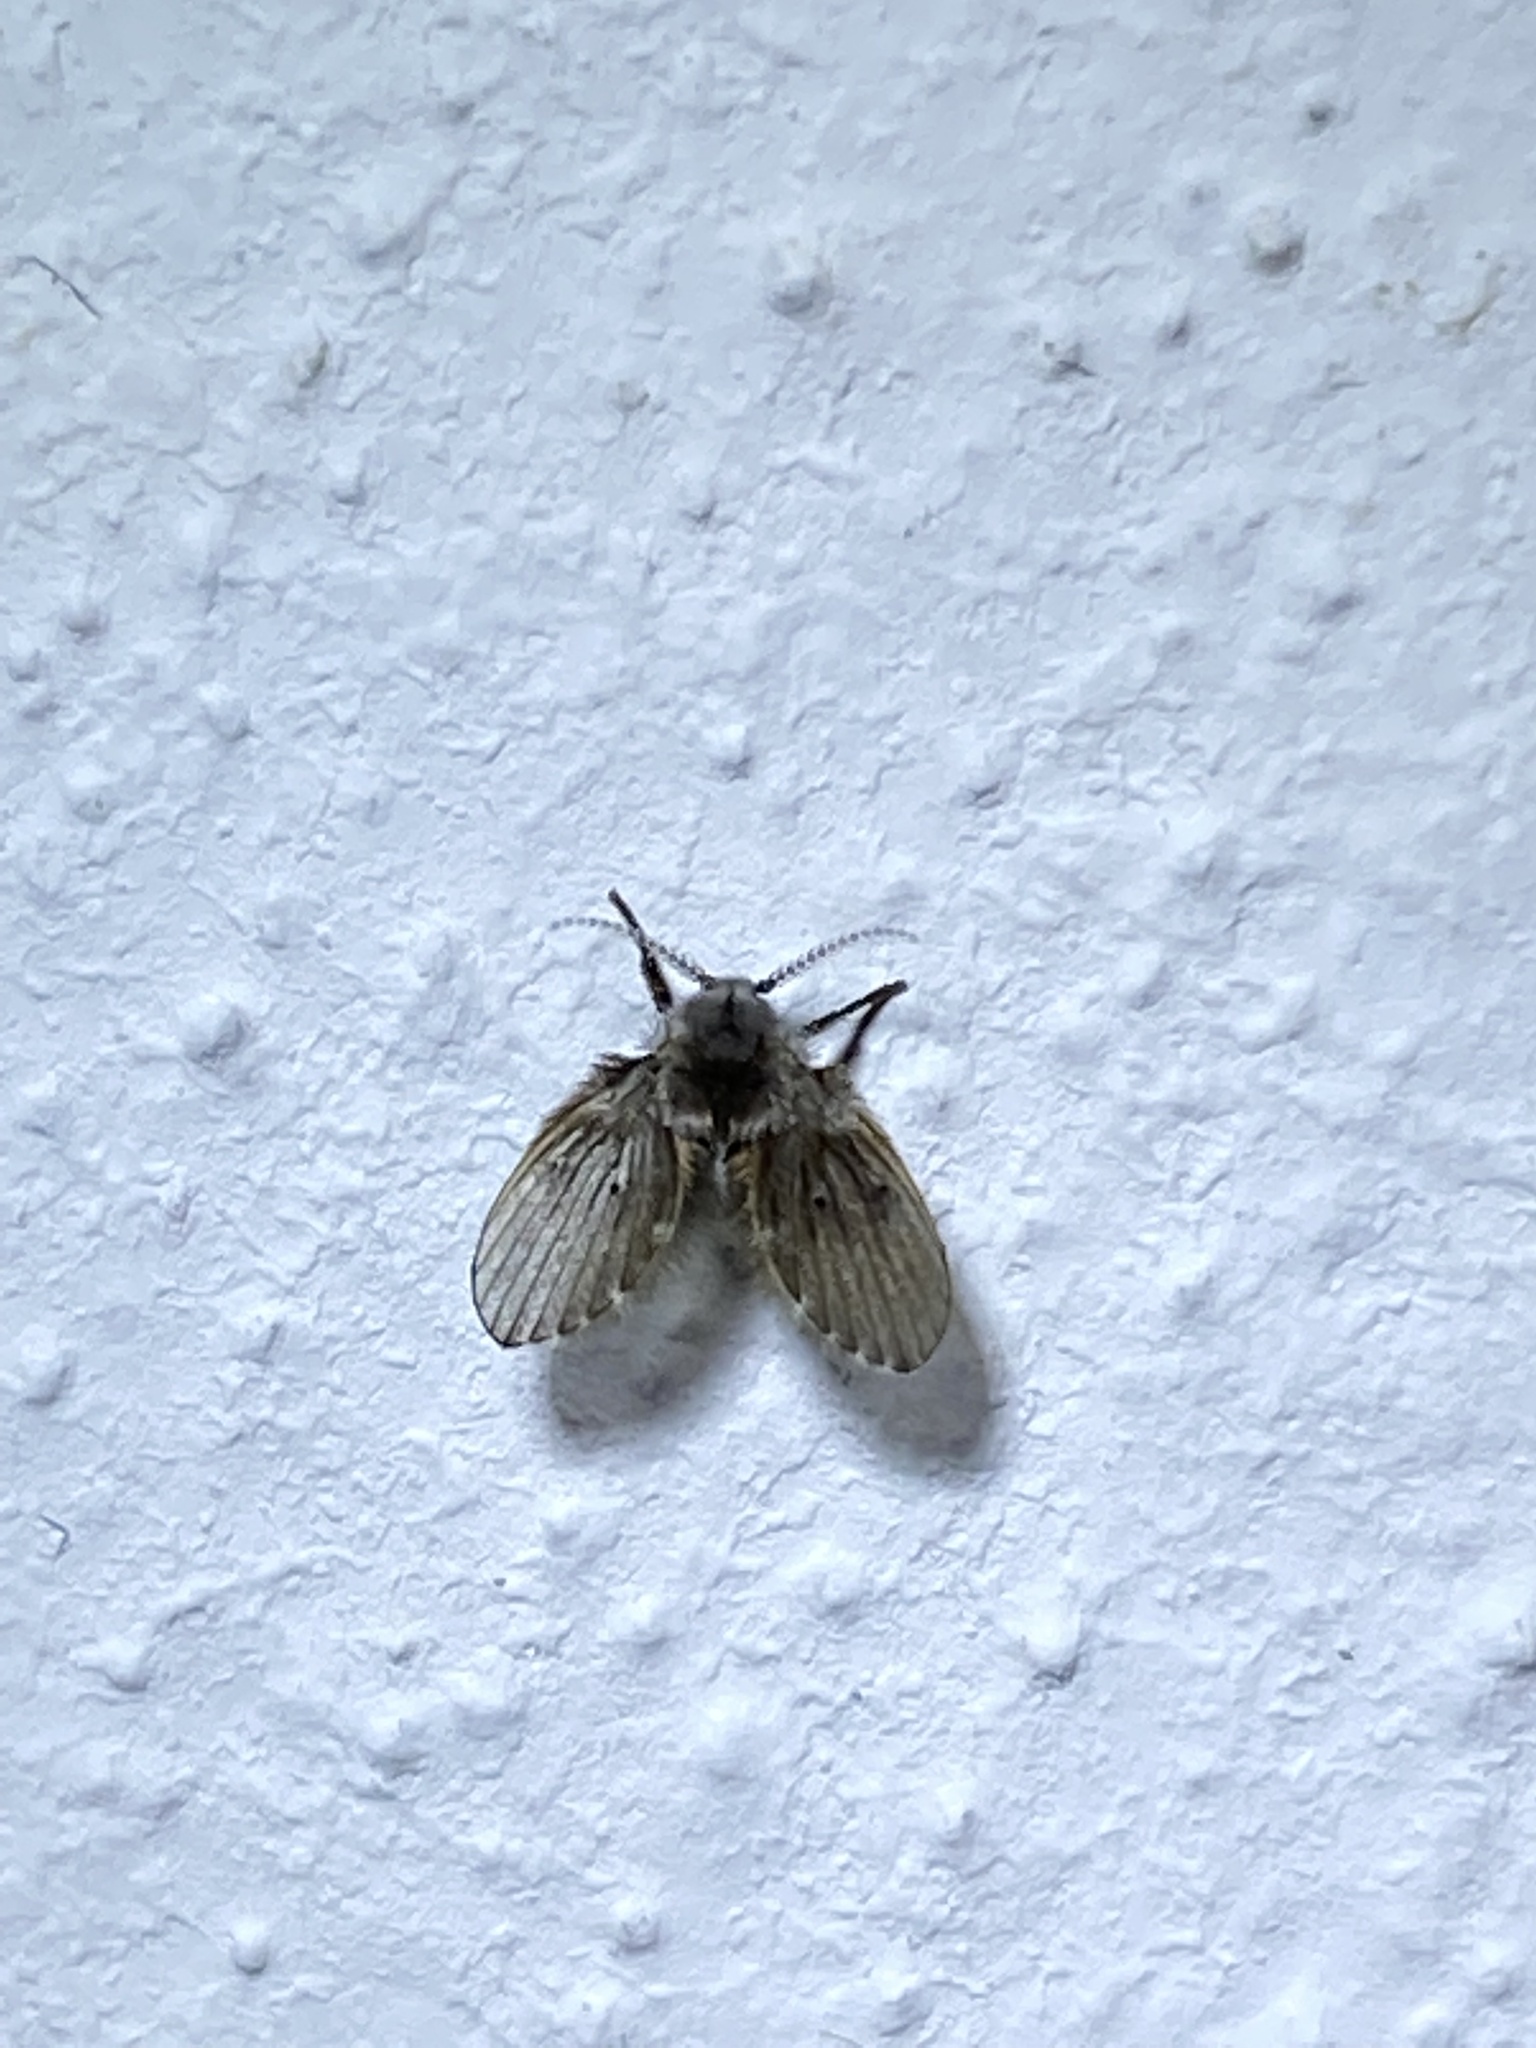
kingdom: Animalia
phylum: Arthropoda
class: Insecta
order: Diptera
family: Psychodidae
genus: Clogmia
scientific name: Clogmia albipunctatus
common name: White-spotted moth fly
